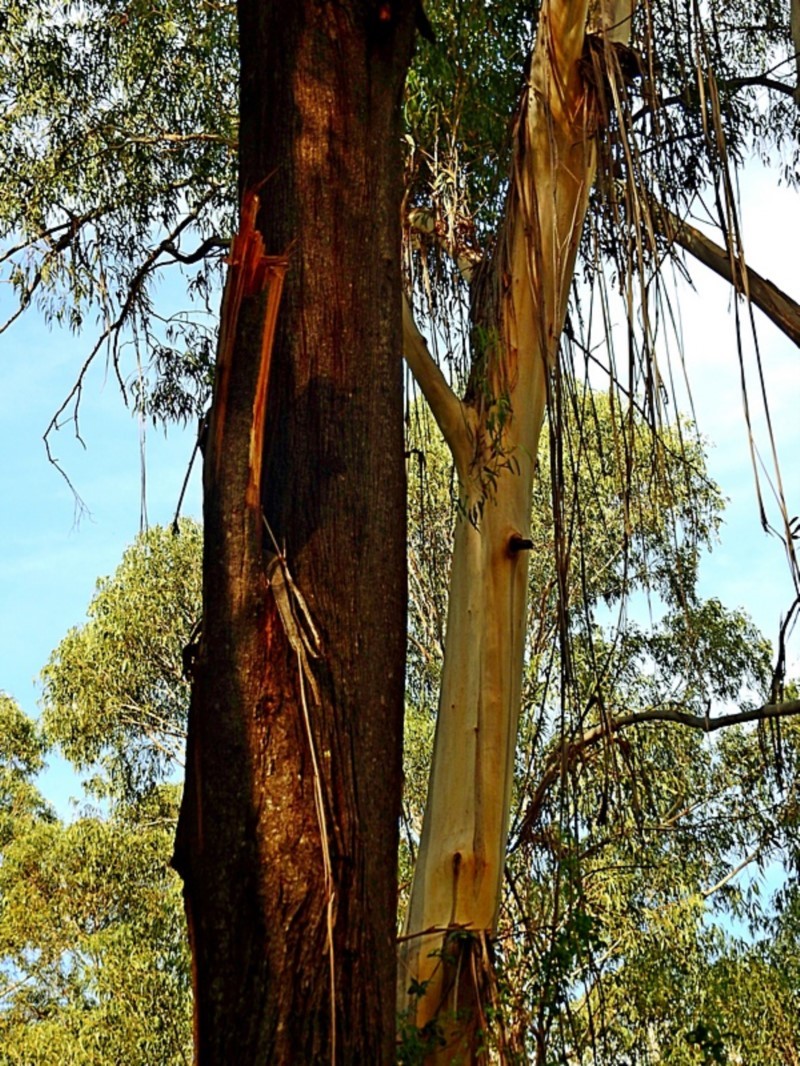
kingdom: Plantae
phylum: Tracheophyta
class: Magnoliopsida
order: Myrtales
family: Myrtaceae
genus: Eucalyptus
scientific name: Eucalyptus elata
